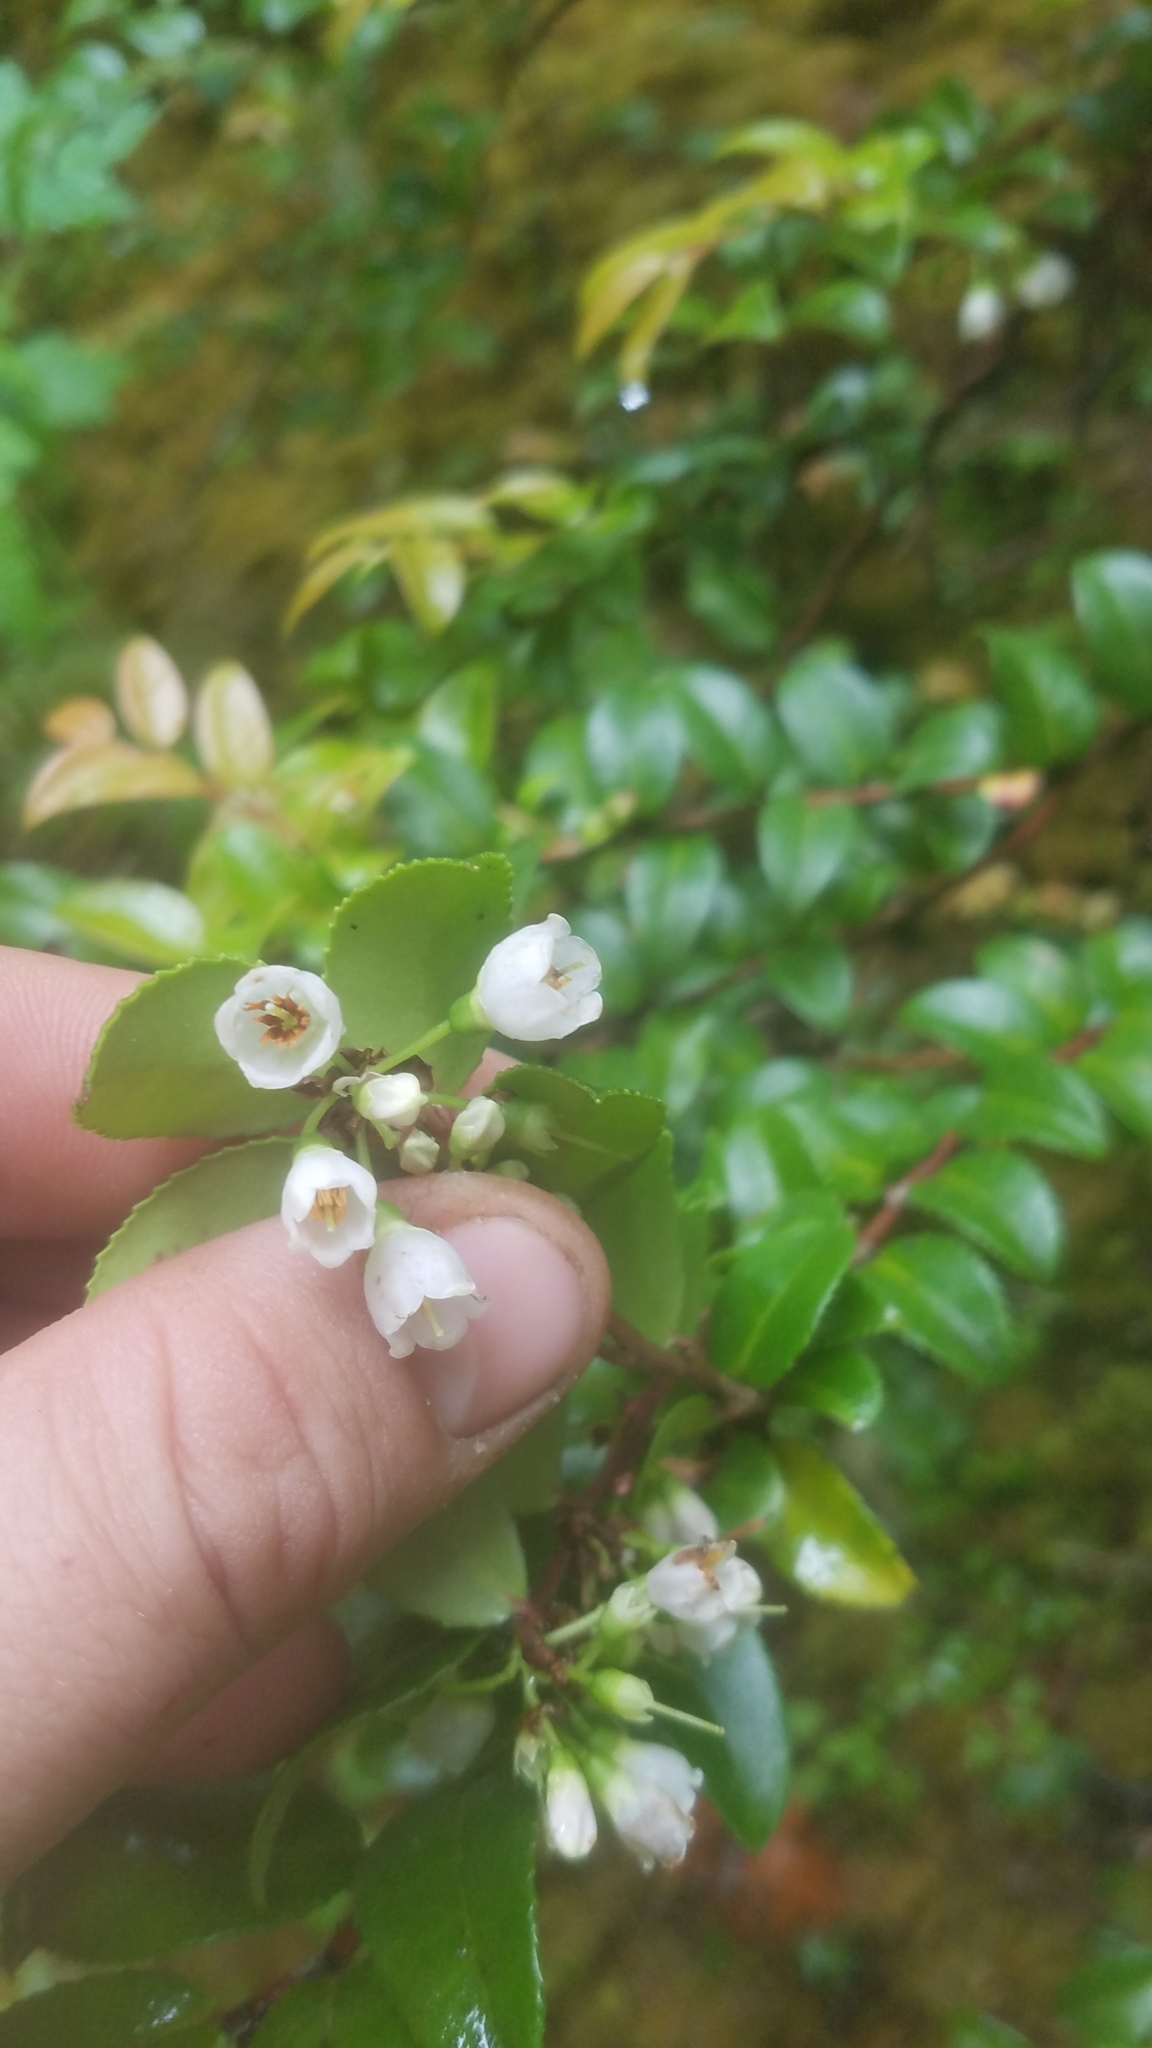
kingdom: Plantae
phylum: Tracheophyta
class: Magnoliopsida
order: Ericales
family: Ericaceae
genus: Vaccinium
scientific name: Vaccinium ovatum
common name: California-huckleberry
